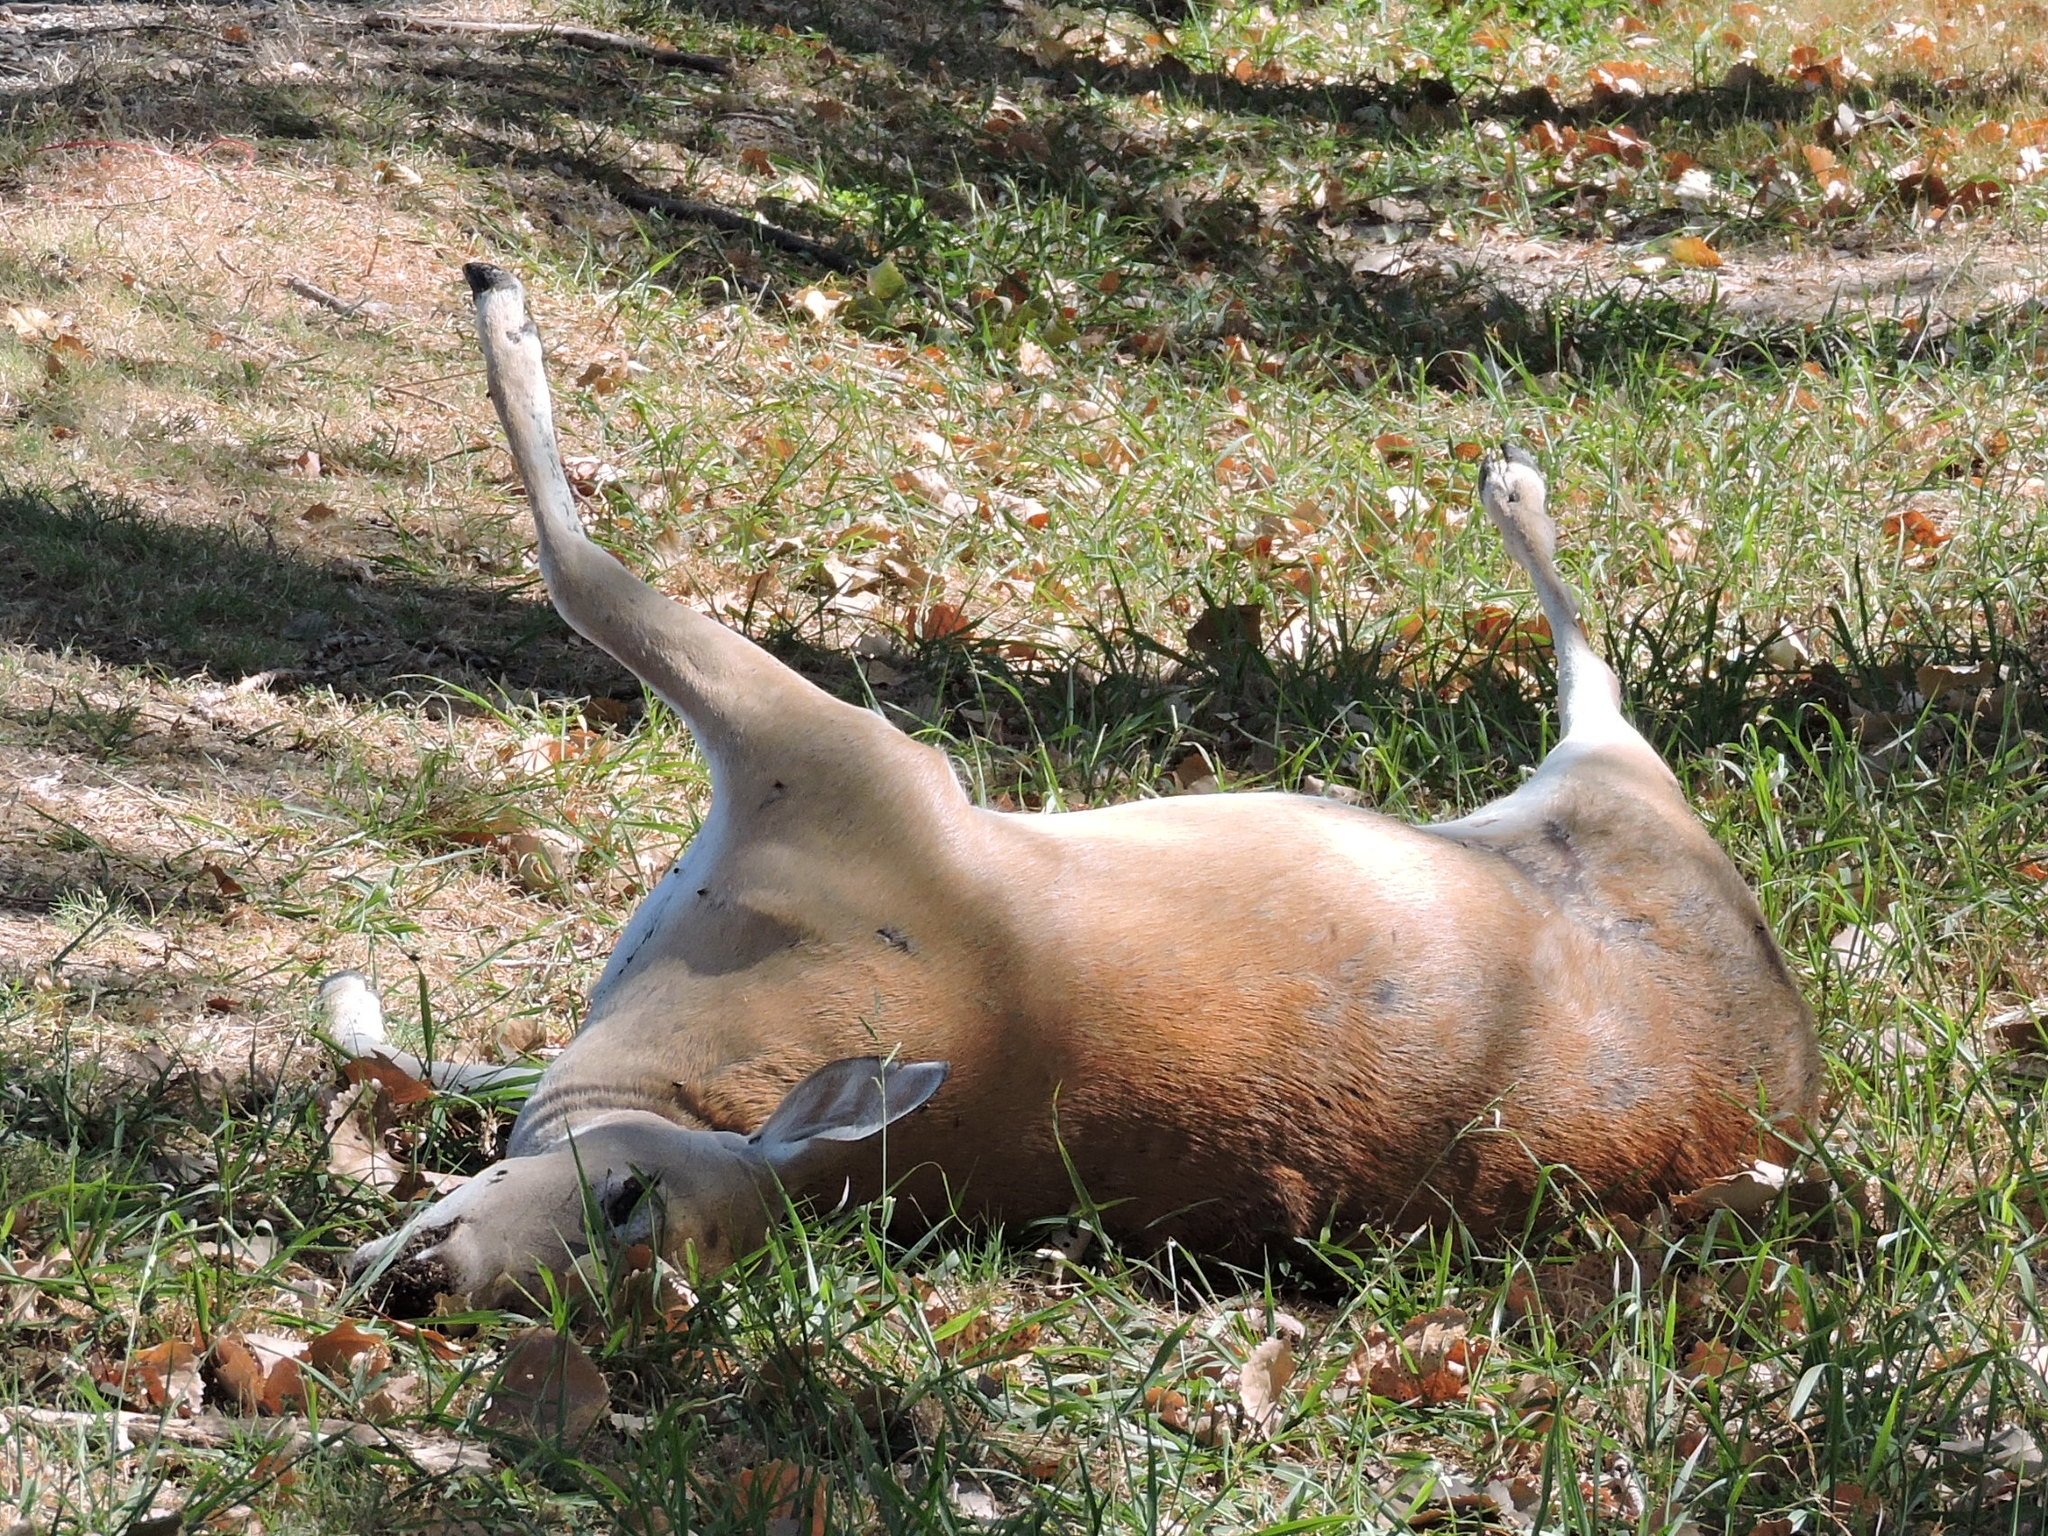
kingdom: Animalia
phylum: Chordata
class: Mammalia
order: Artiodactyla
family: Cervidae
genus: Odocoileus
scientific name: Odocoileus virginianus
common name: White-tailed deer
